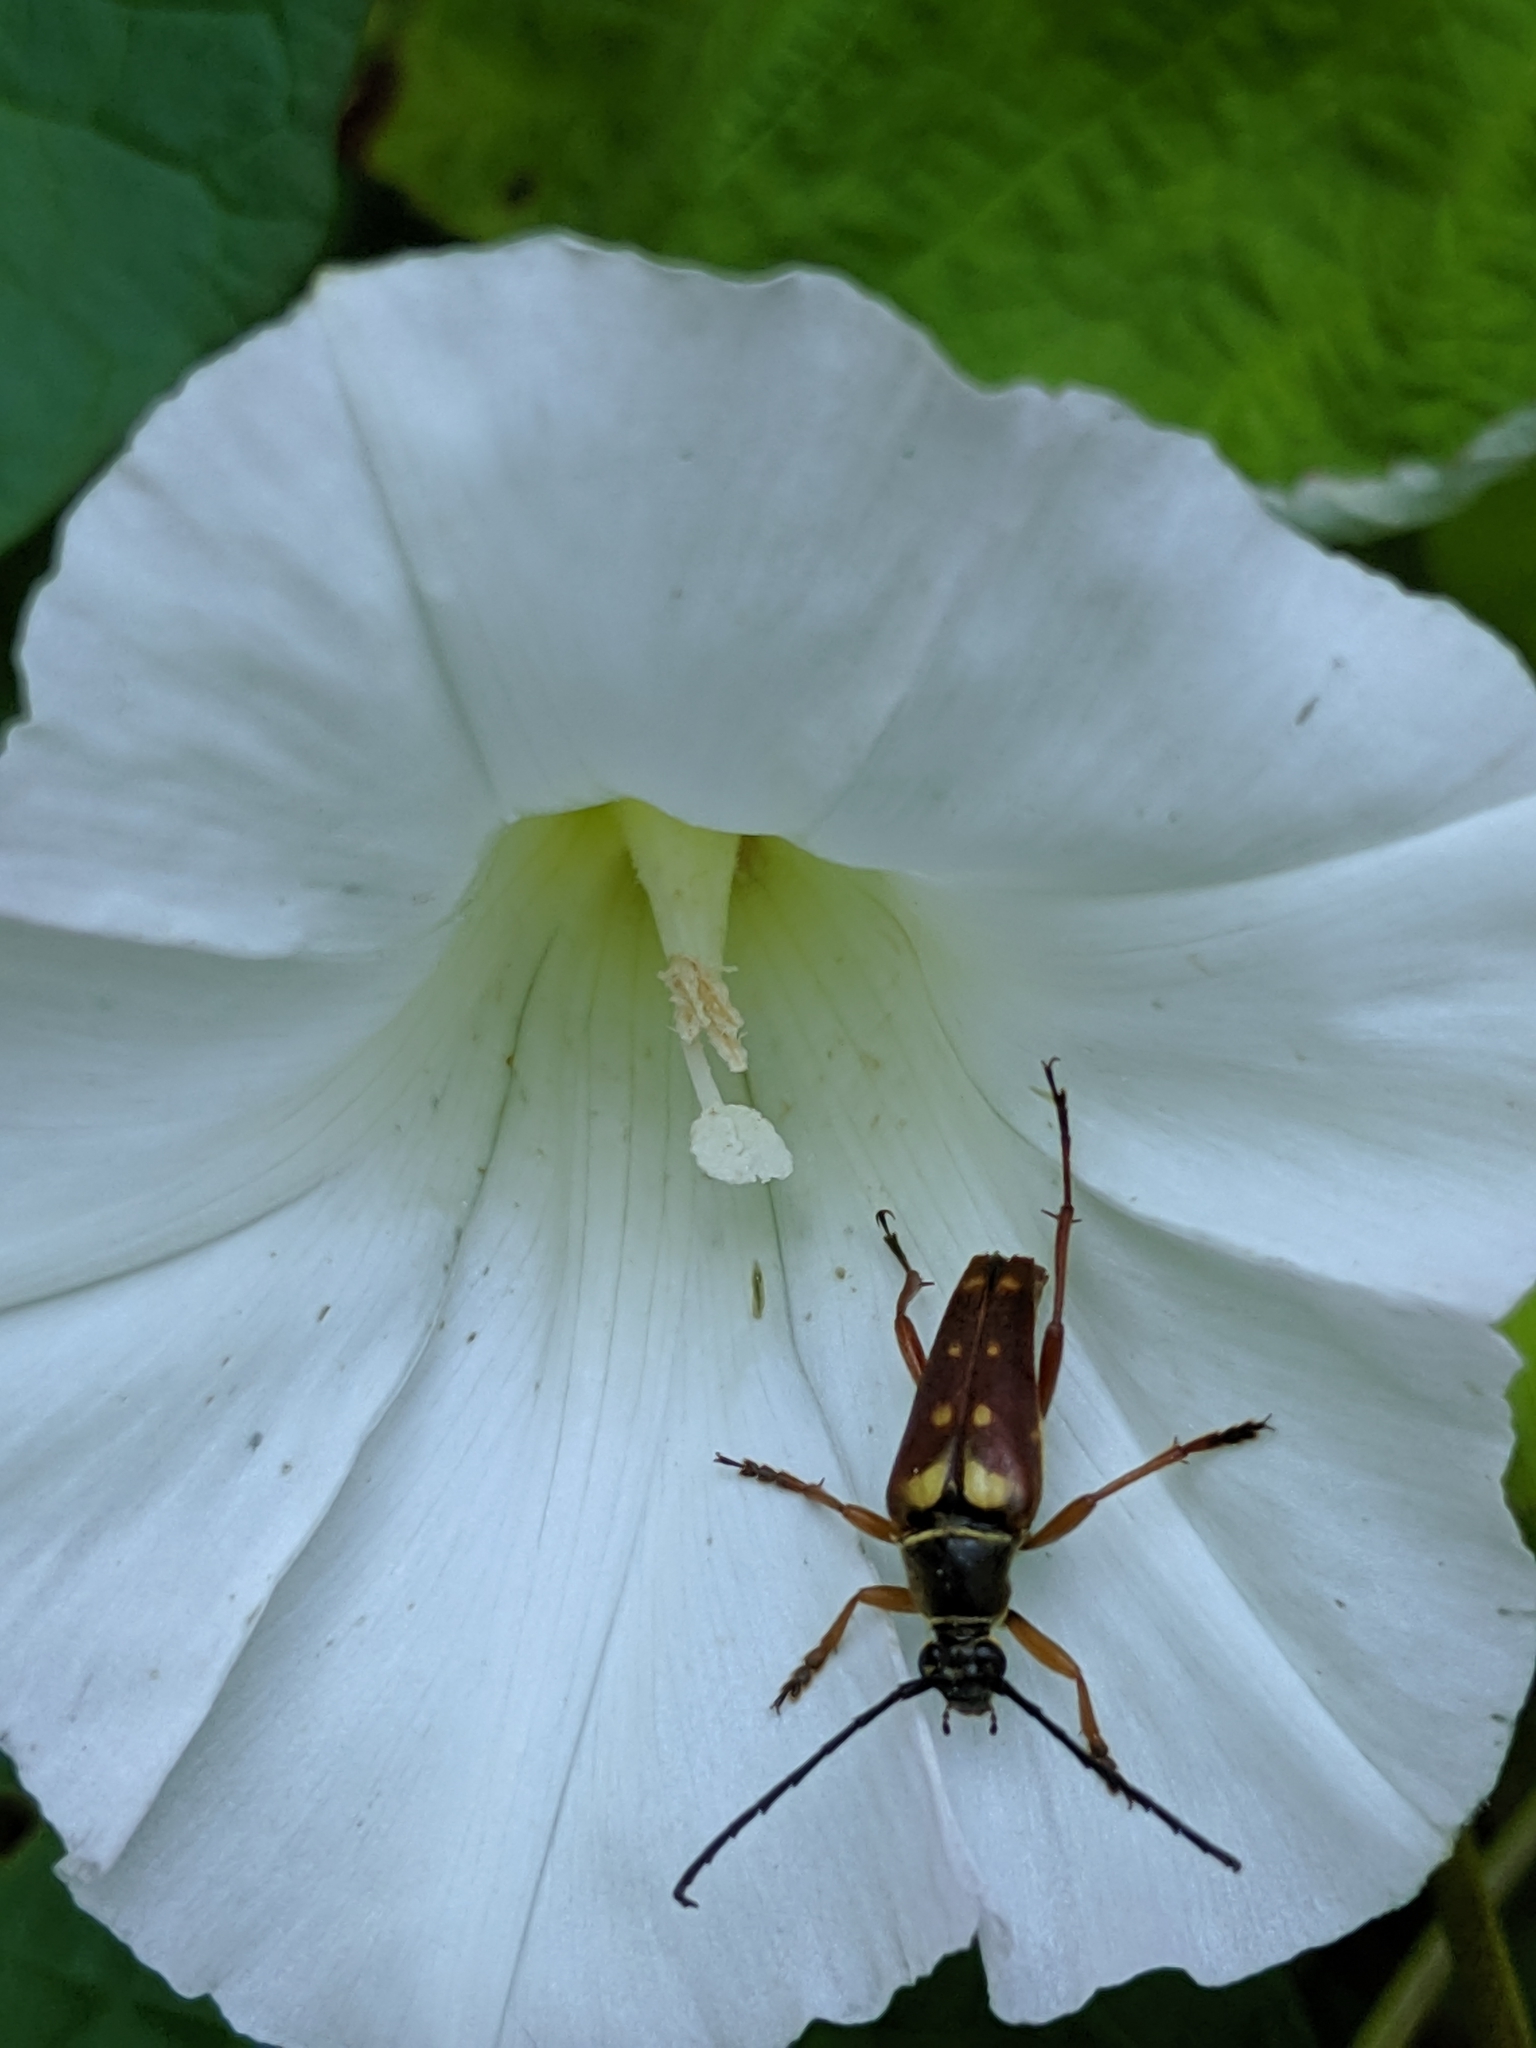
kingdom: Animalia
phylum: Arthropoda
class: Insecta
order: Coleoptera
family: Cerambycidae
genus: Typocerus
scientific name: Typocerus velutinus
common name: Banded longhorn beetle
